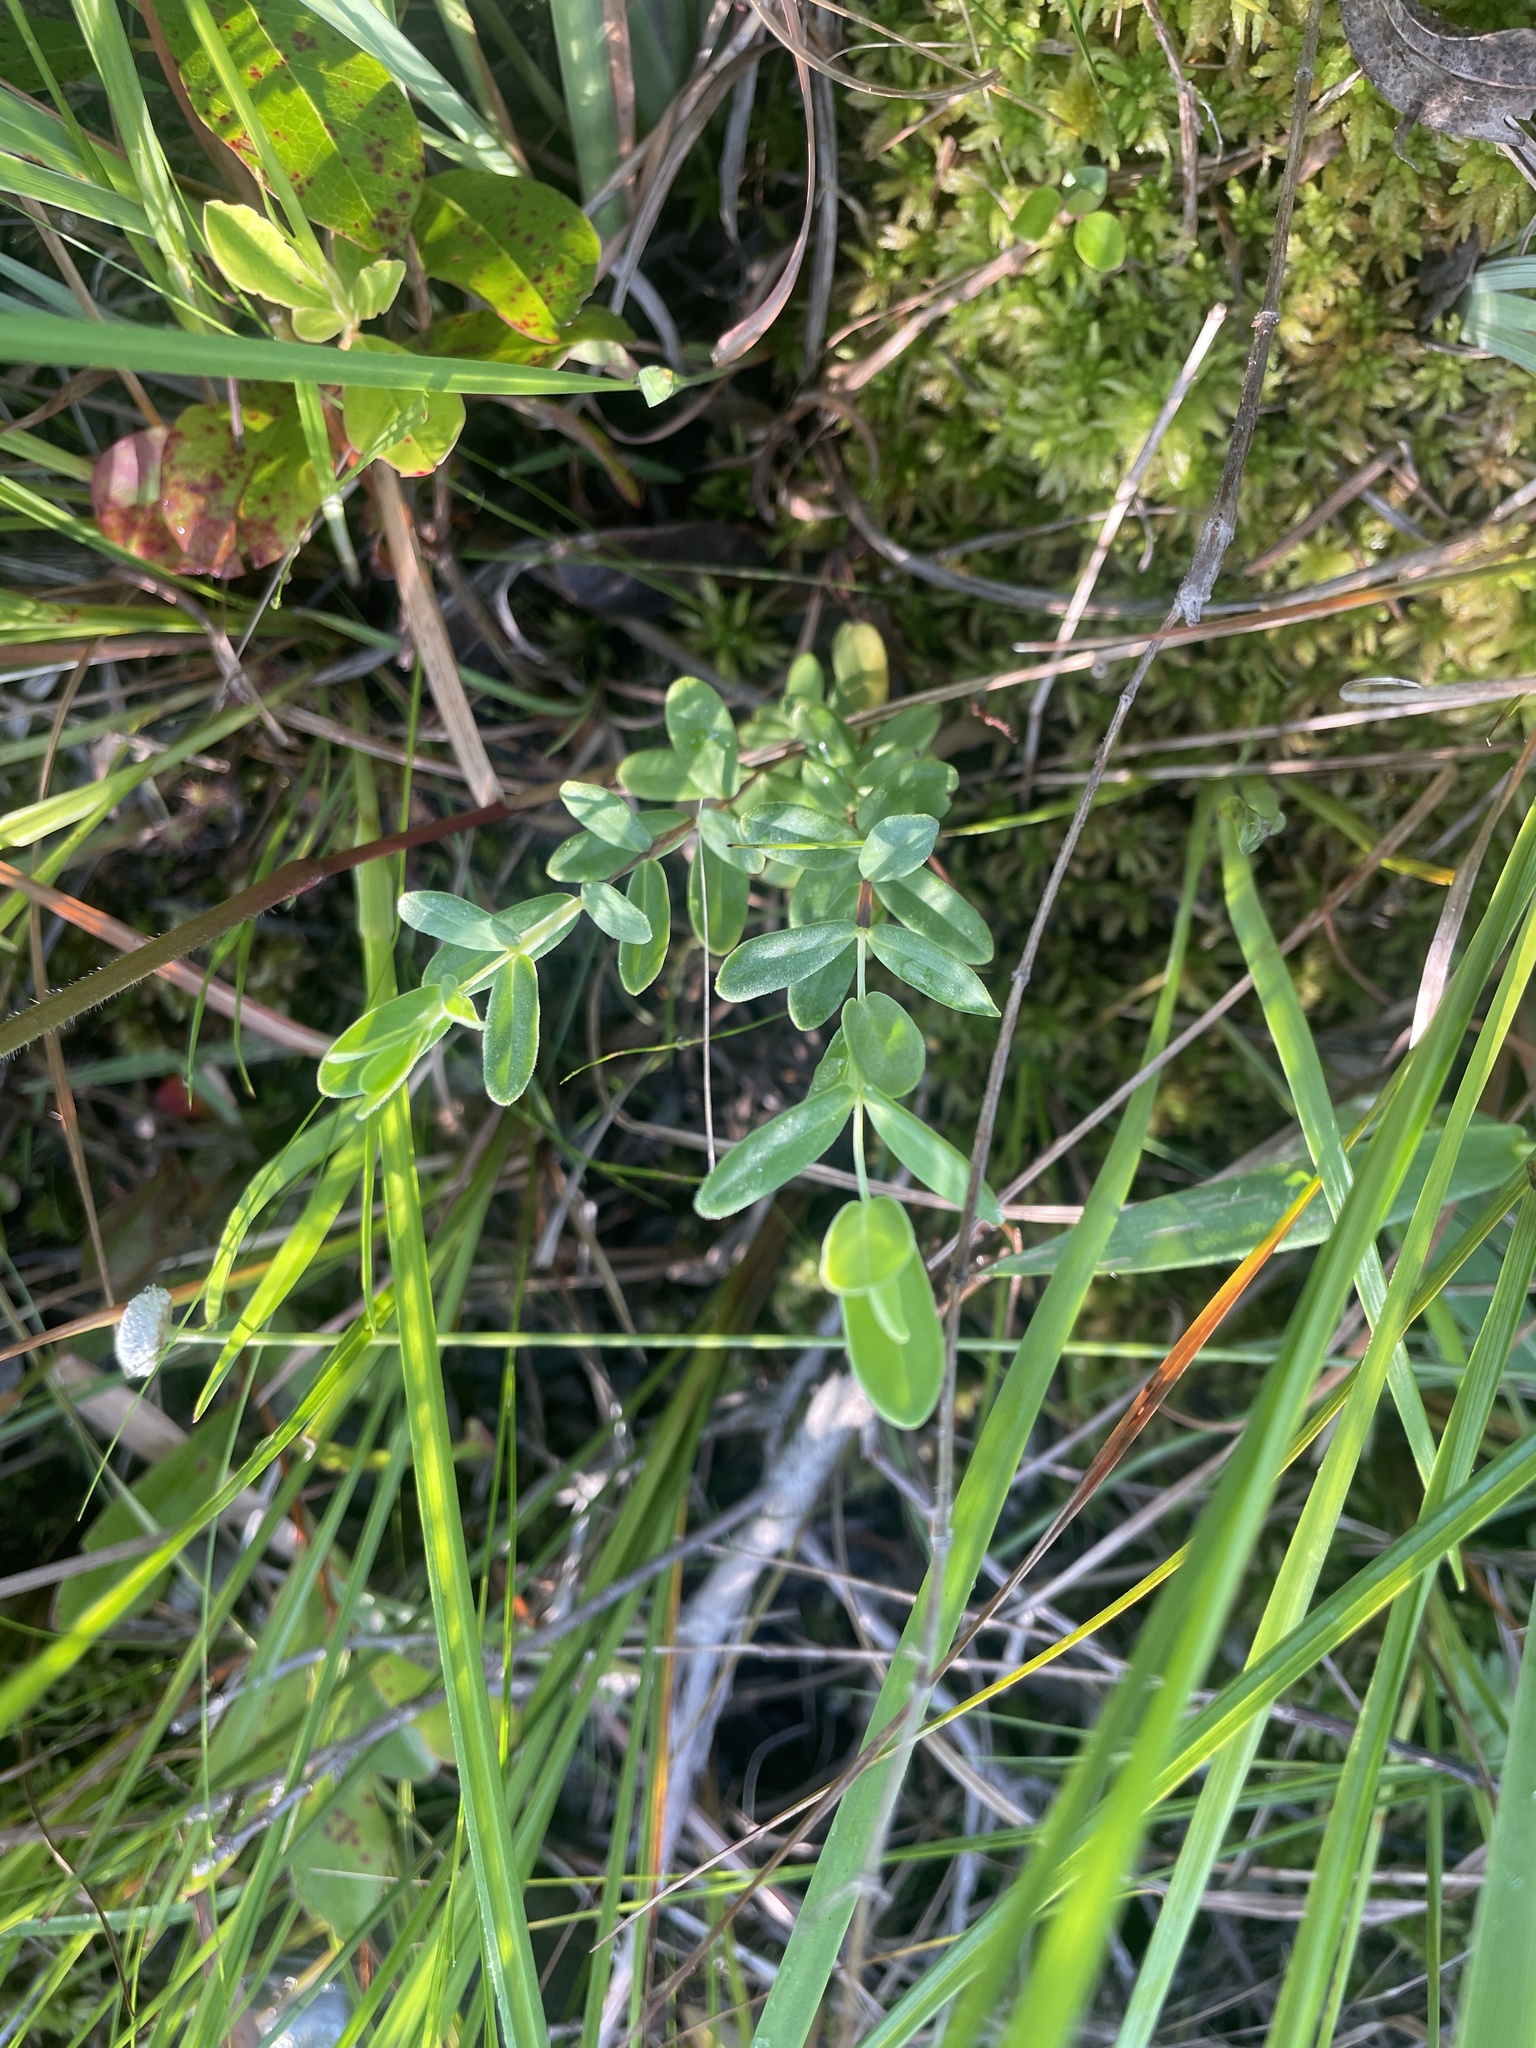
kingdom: Plantae
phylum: Tracheophyta
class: Magnoliopsida
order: Malpighiales
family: Hypericaceae
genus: Hypericum
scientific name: Hypericum crux-andreae
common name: St.-peter's-wort
